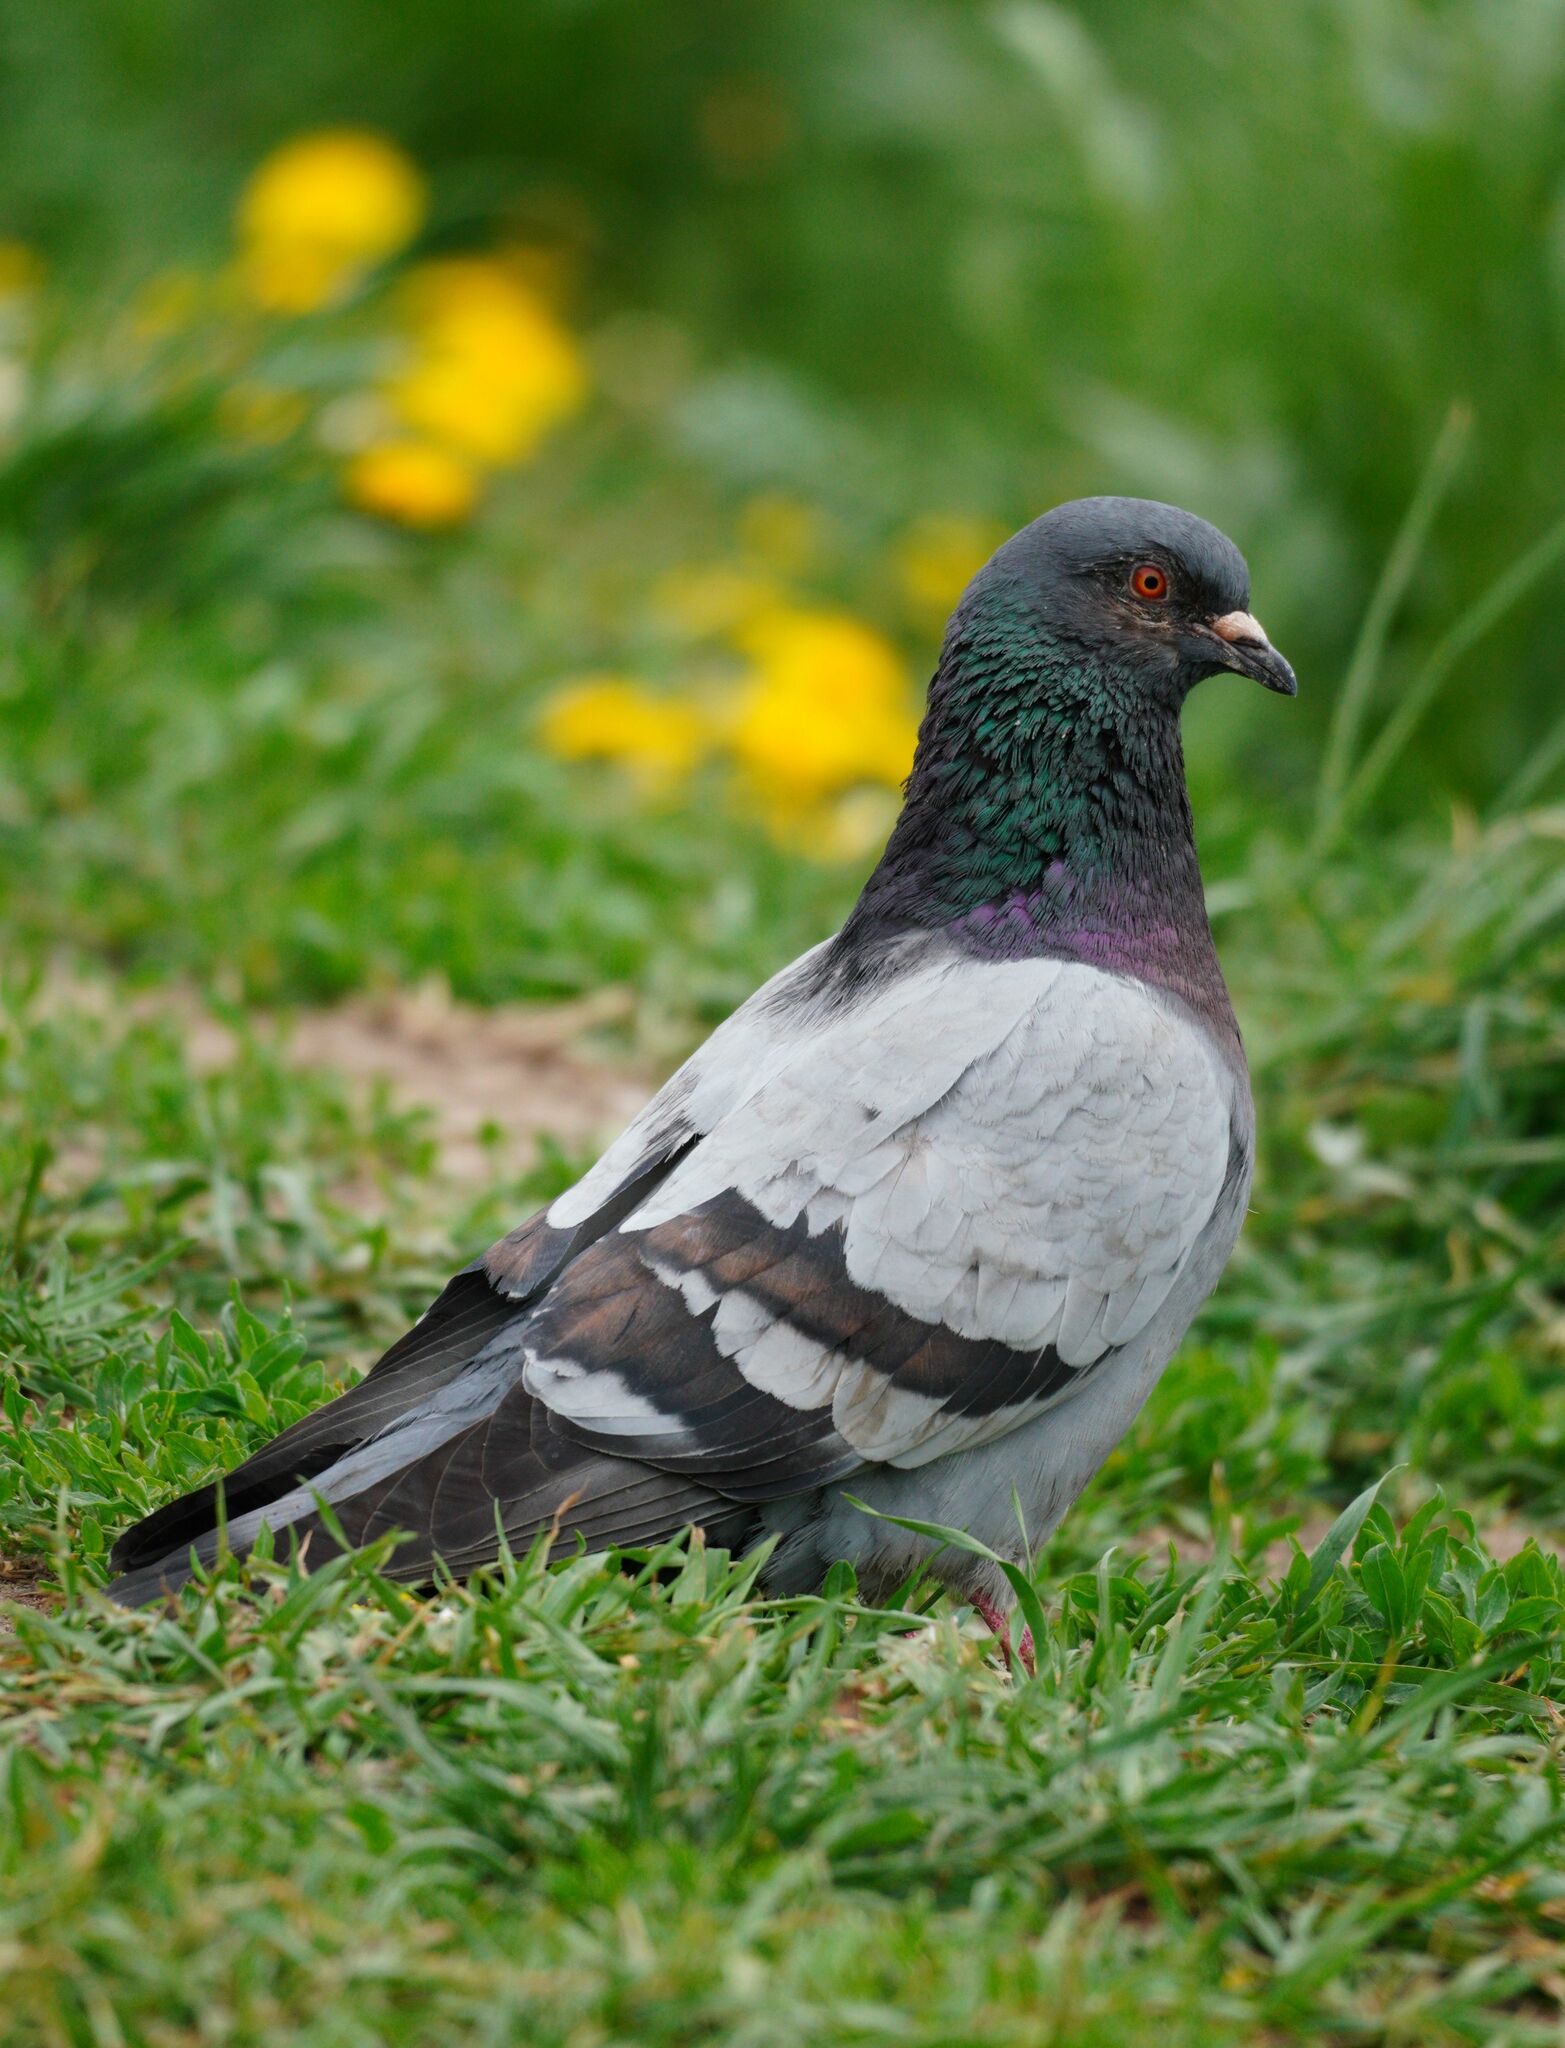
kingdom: Animalia
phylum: Chordata
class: Aves
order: Columbiformes
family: Columbidae
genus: Columba
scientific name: Columba livia
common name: Rock pigeon
